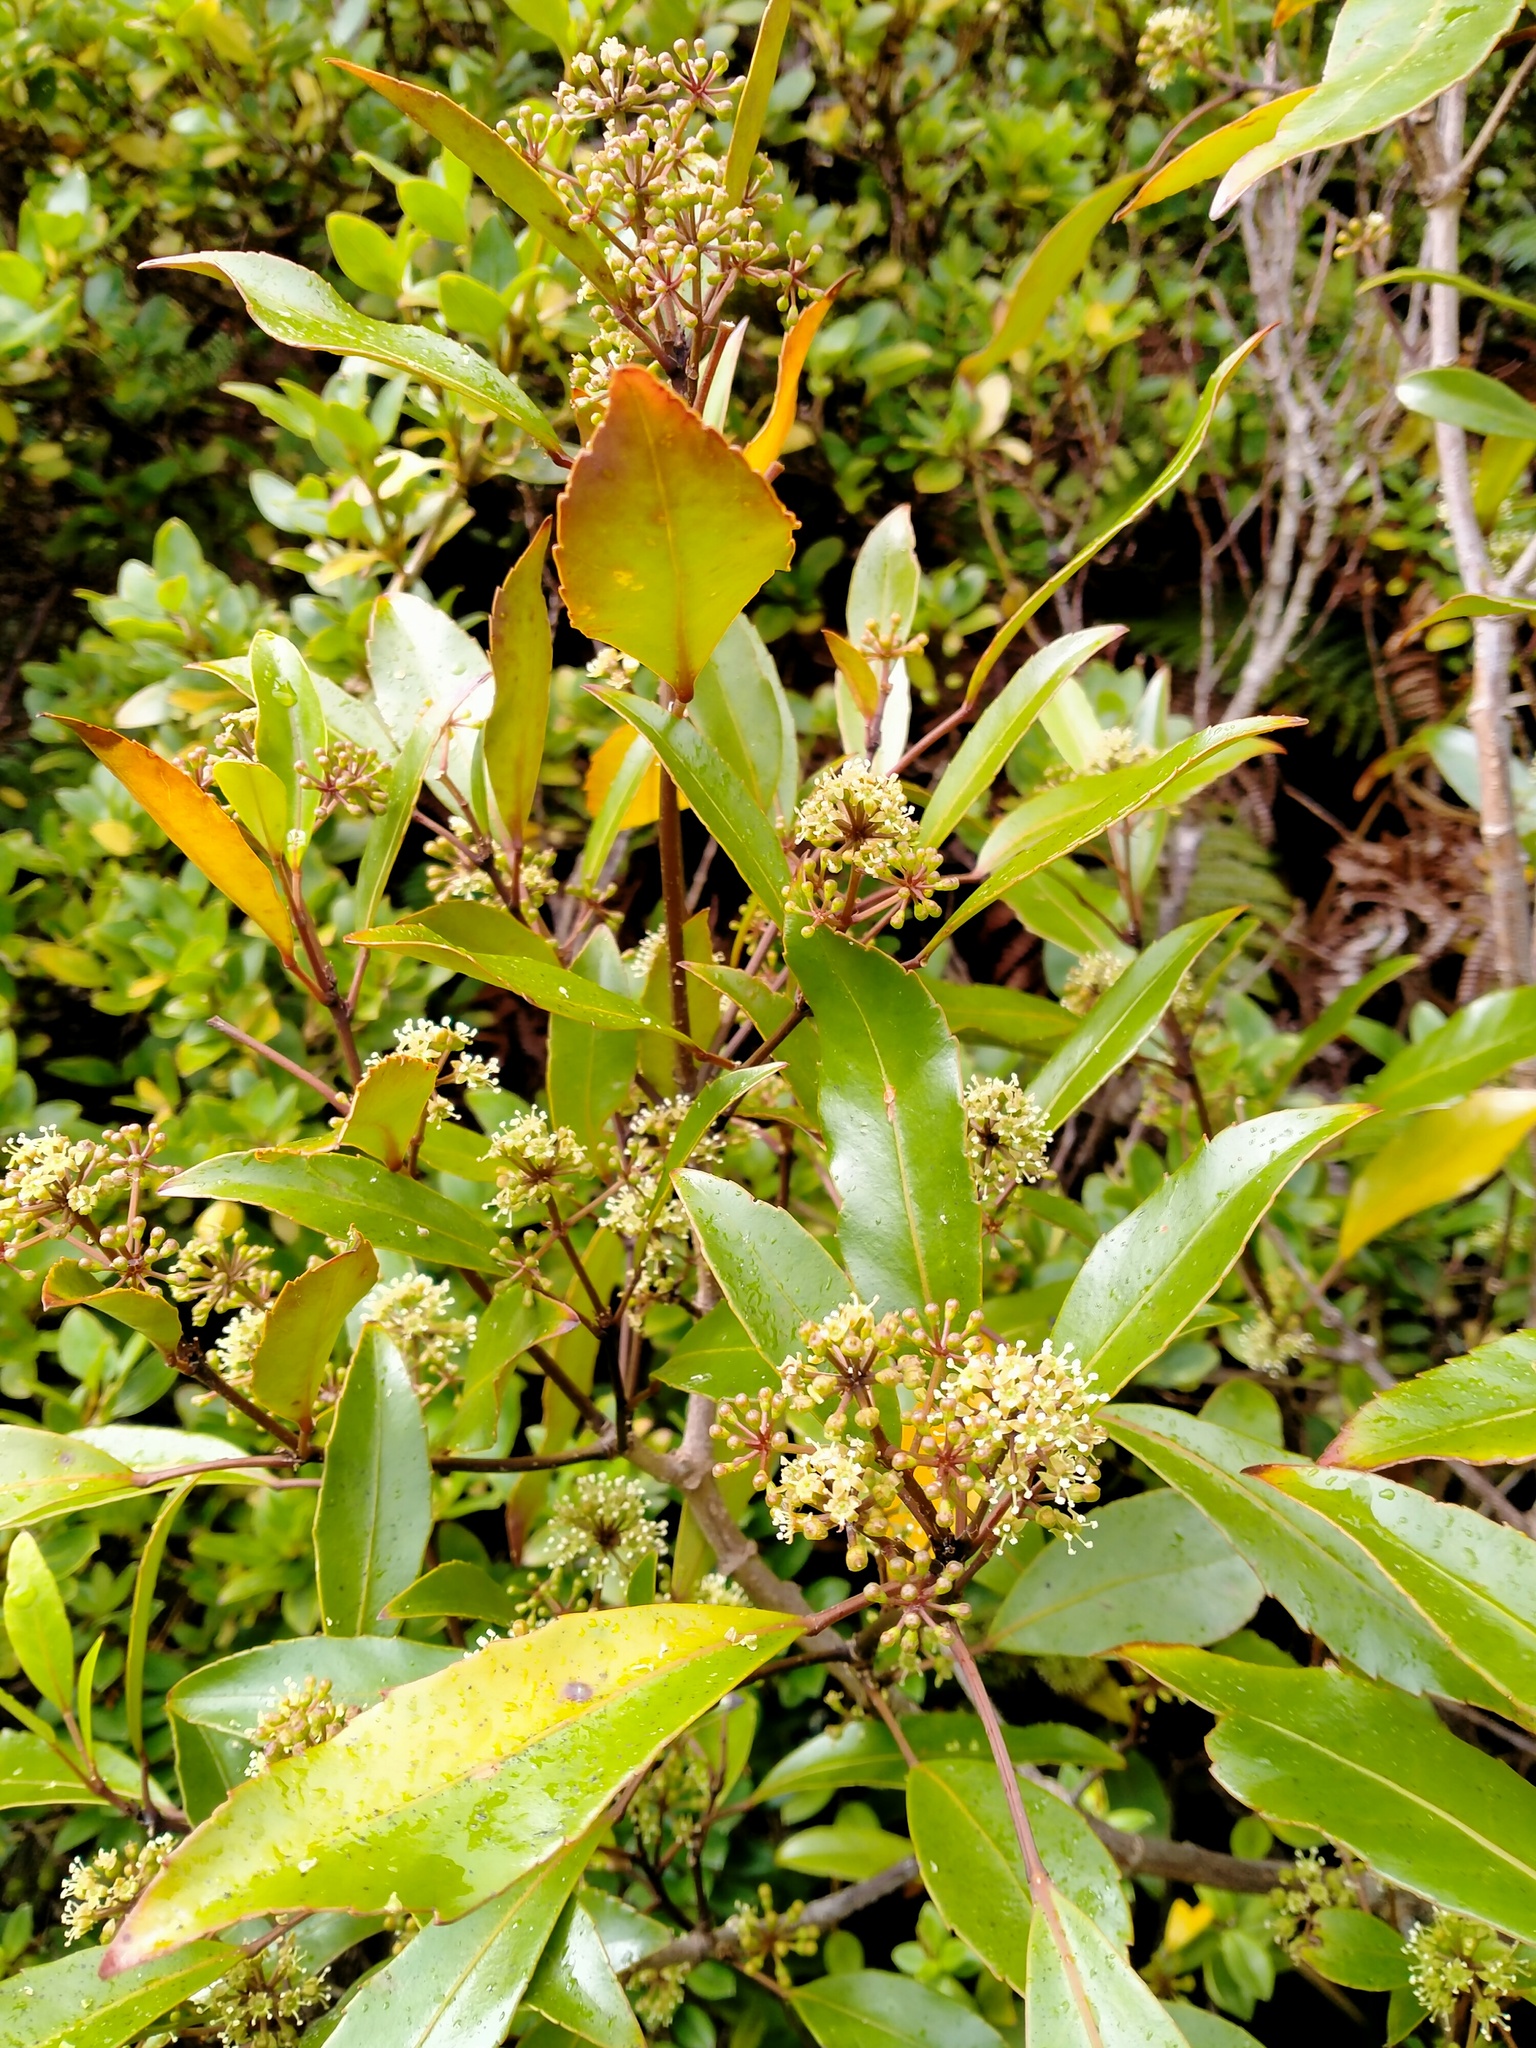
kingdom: Plantae
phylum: Tracheophyta
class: Magnoliopsida
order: Apiales
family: Araliaceae
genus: Raukaua
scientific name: Raukaua simplex
